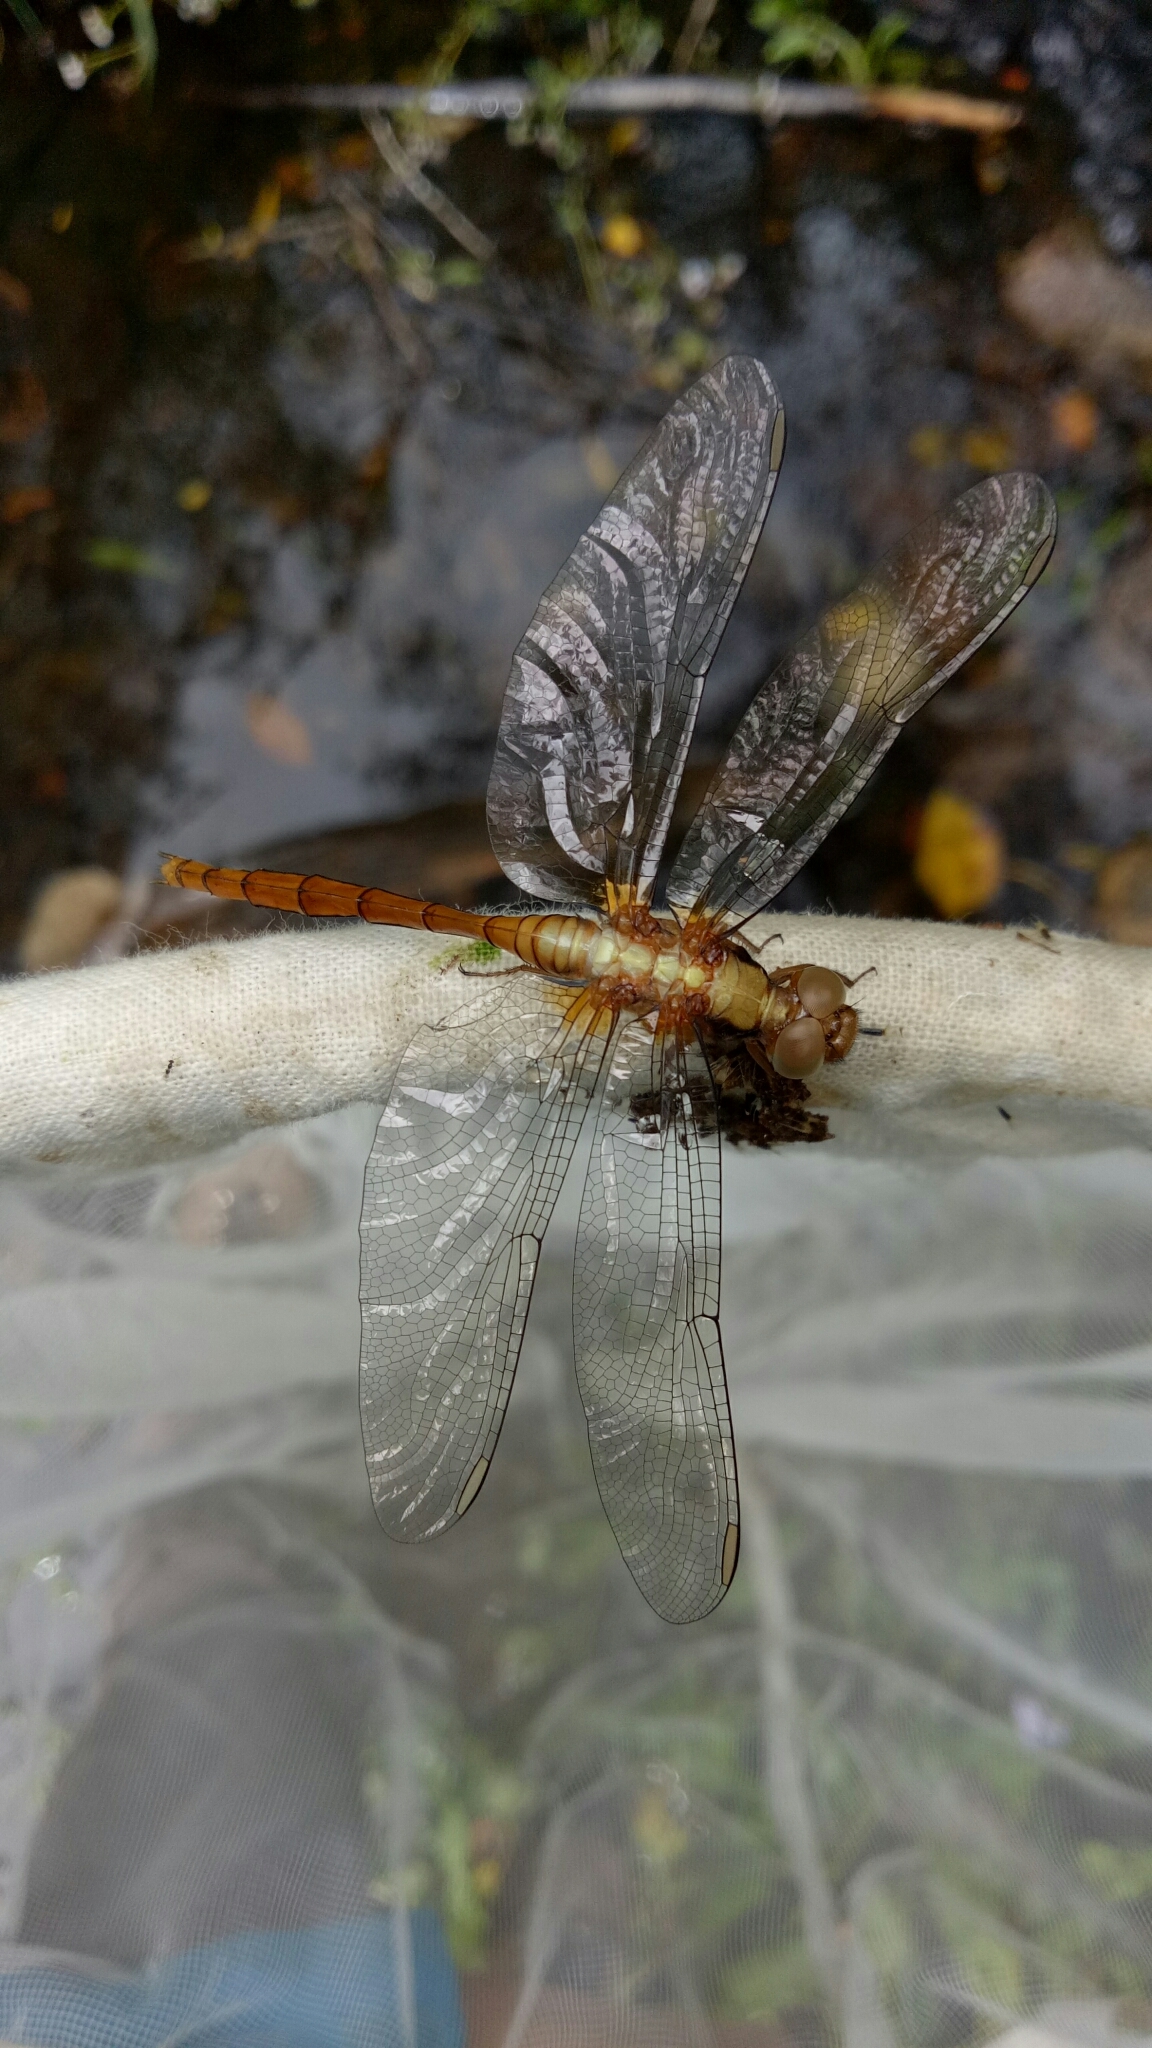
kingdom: Animalia
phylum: Arthropoda
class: Insecta
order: Odonata
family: Libellulidae
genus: Orthetrum
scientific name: Orthetrum villosovittatum
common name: Firery skimmer
